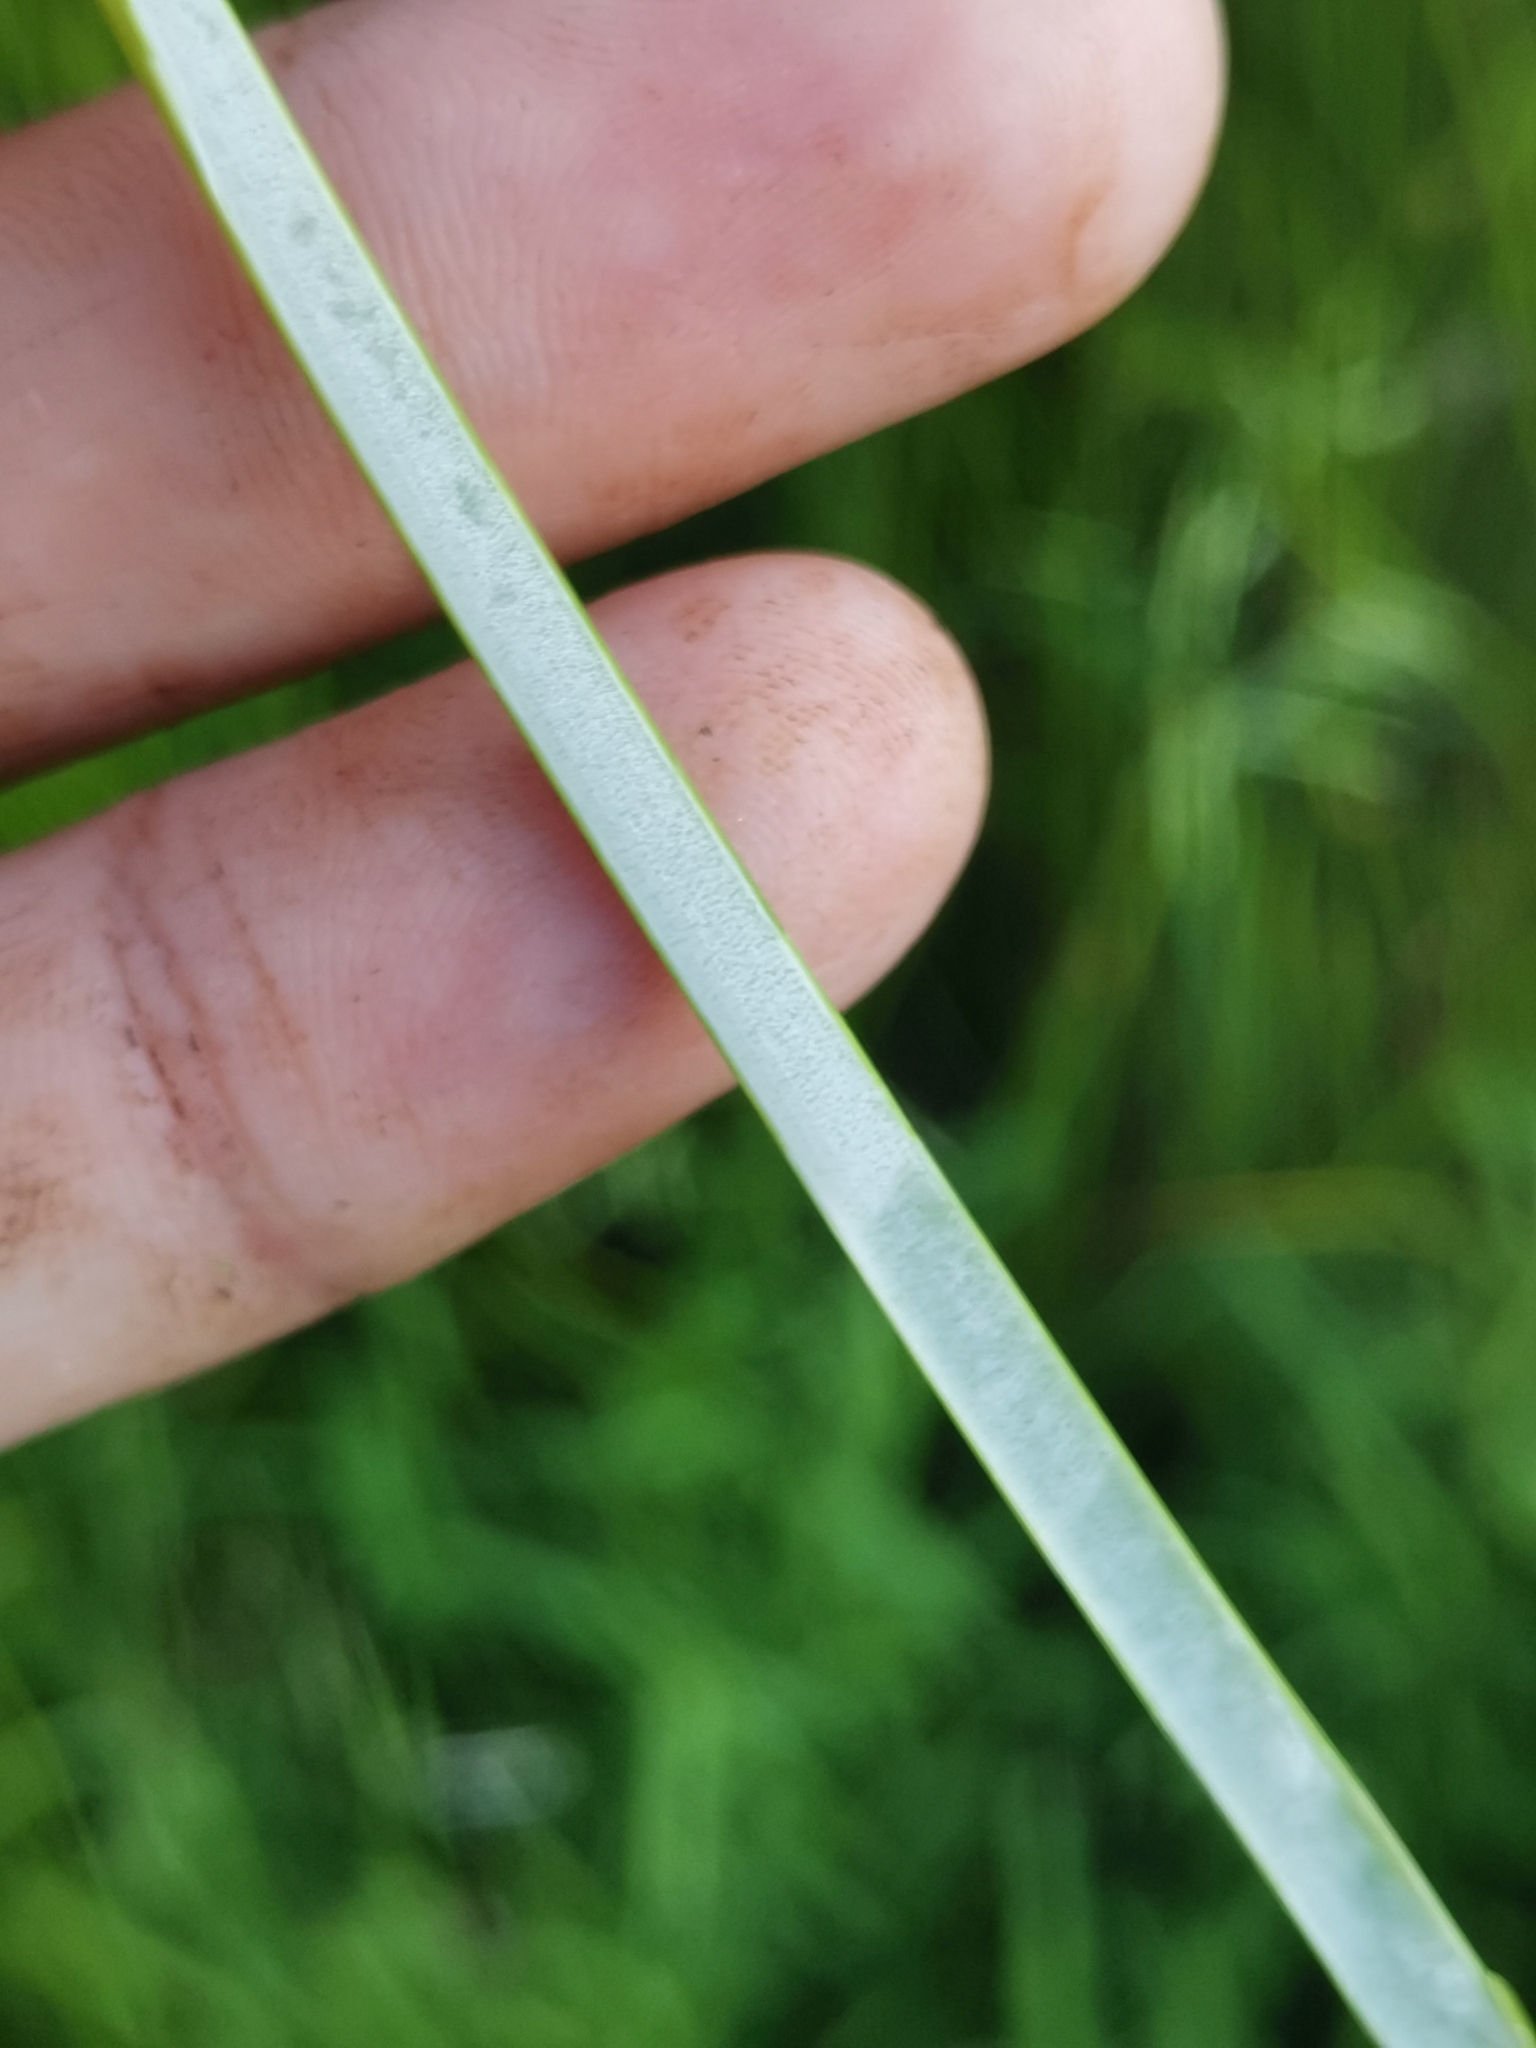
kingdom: Plantae
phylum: Tracheophyta
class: Liliopsida
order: Poales
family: Juncaceae
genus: Juncus
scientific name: Juncus effusus
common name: Soft rush
